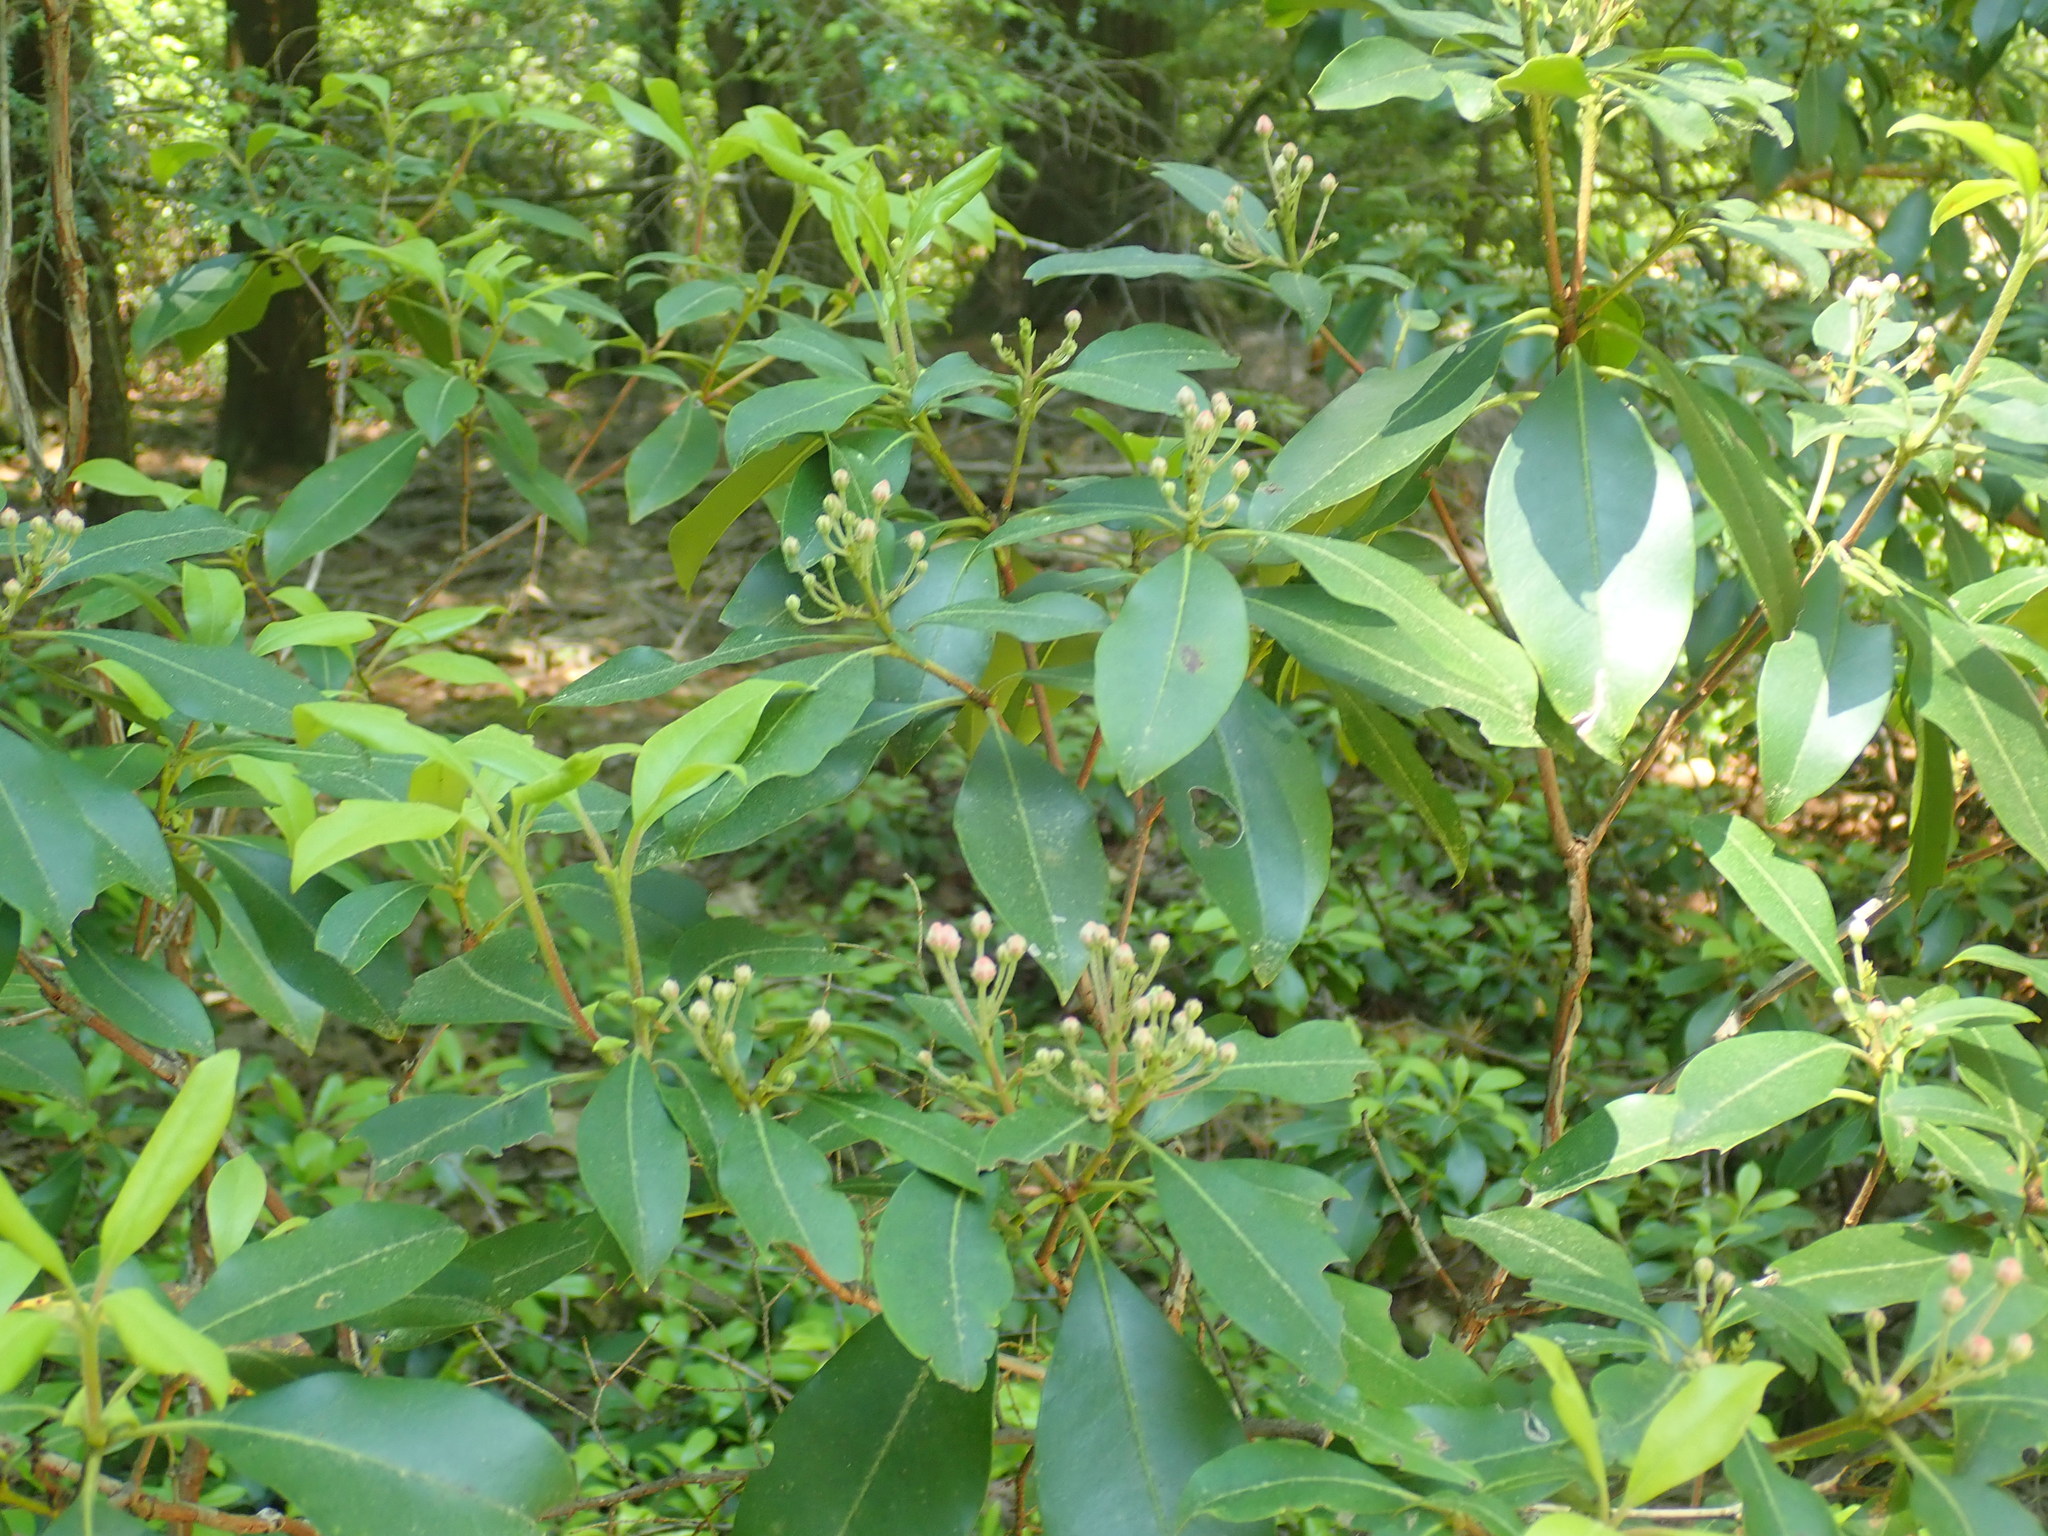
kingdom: Plantae
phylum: Tracheophyta
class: Magnoliopsida
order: Ericales
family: Ericaceae
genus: Kalmia
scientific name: Kalmia latifolia
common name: Mountain-laurel
